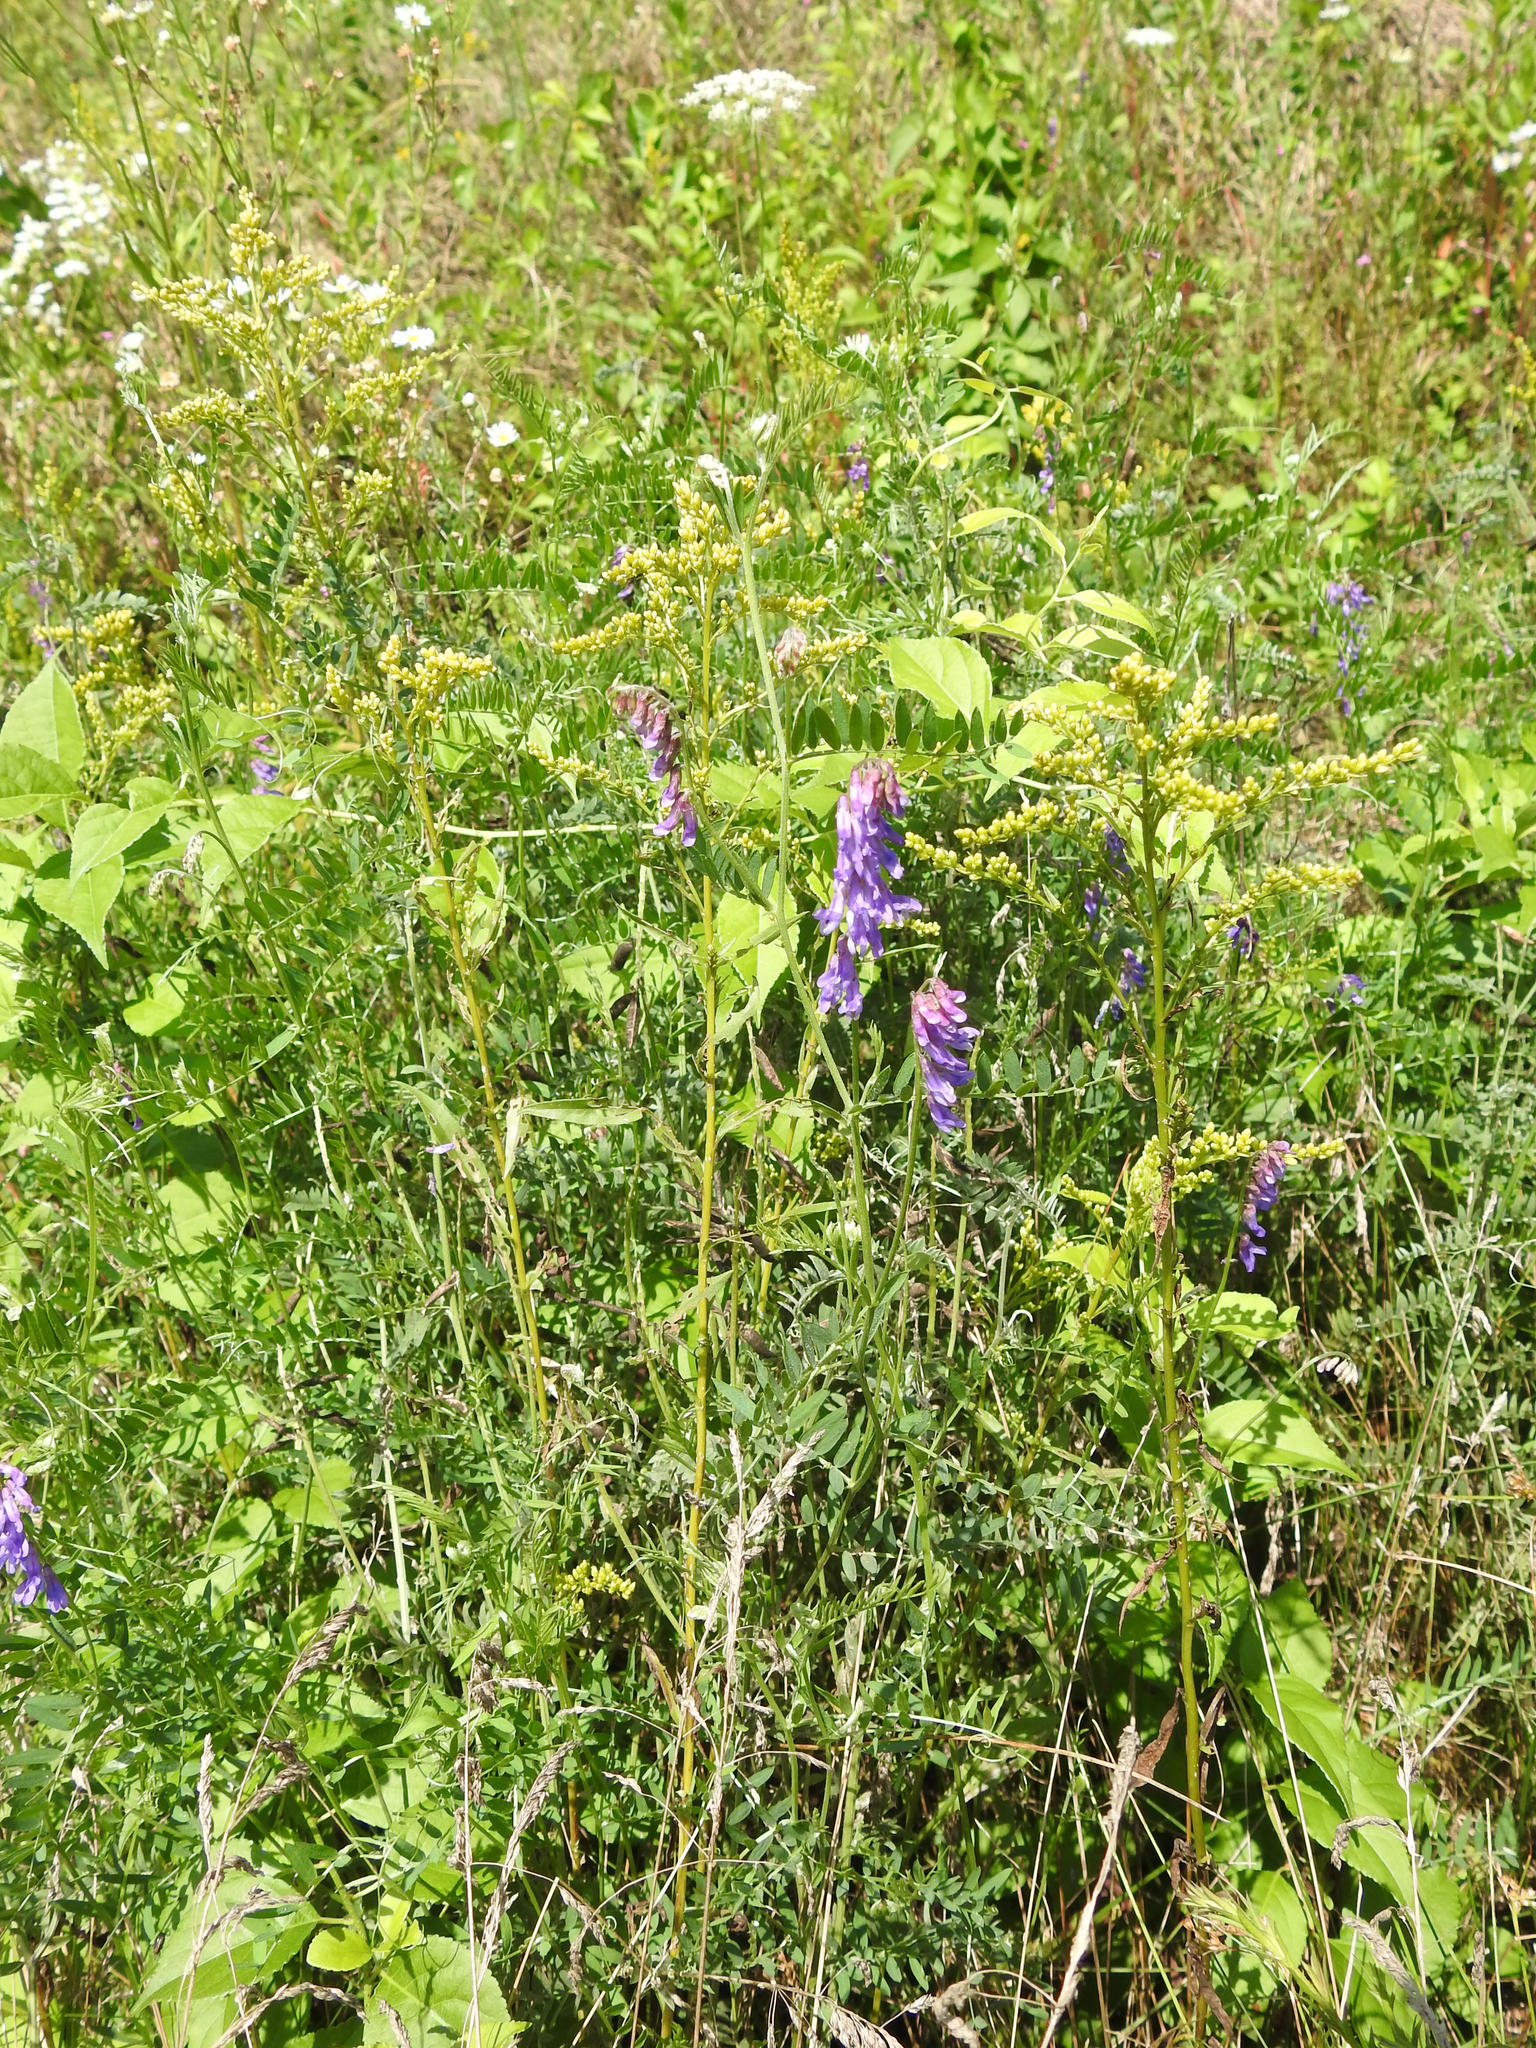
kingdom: Plantae
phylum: Tracheophyta
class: Magnoliopsida
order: Fabales
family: Fabaceae
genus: Vicia
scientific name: Vicia cracca
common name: Bird vetch
